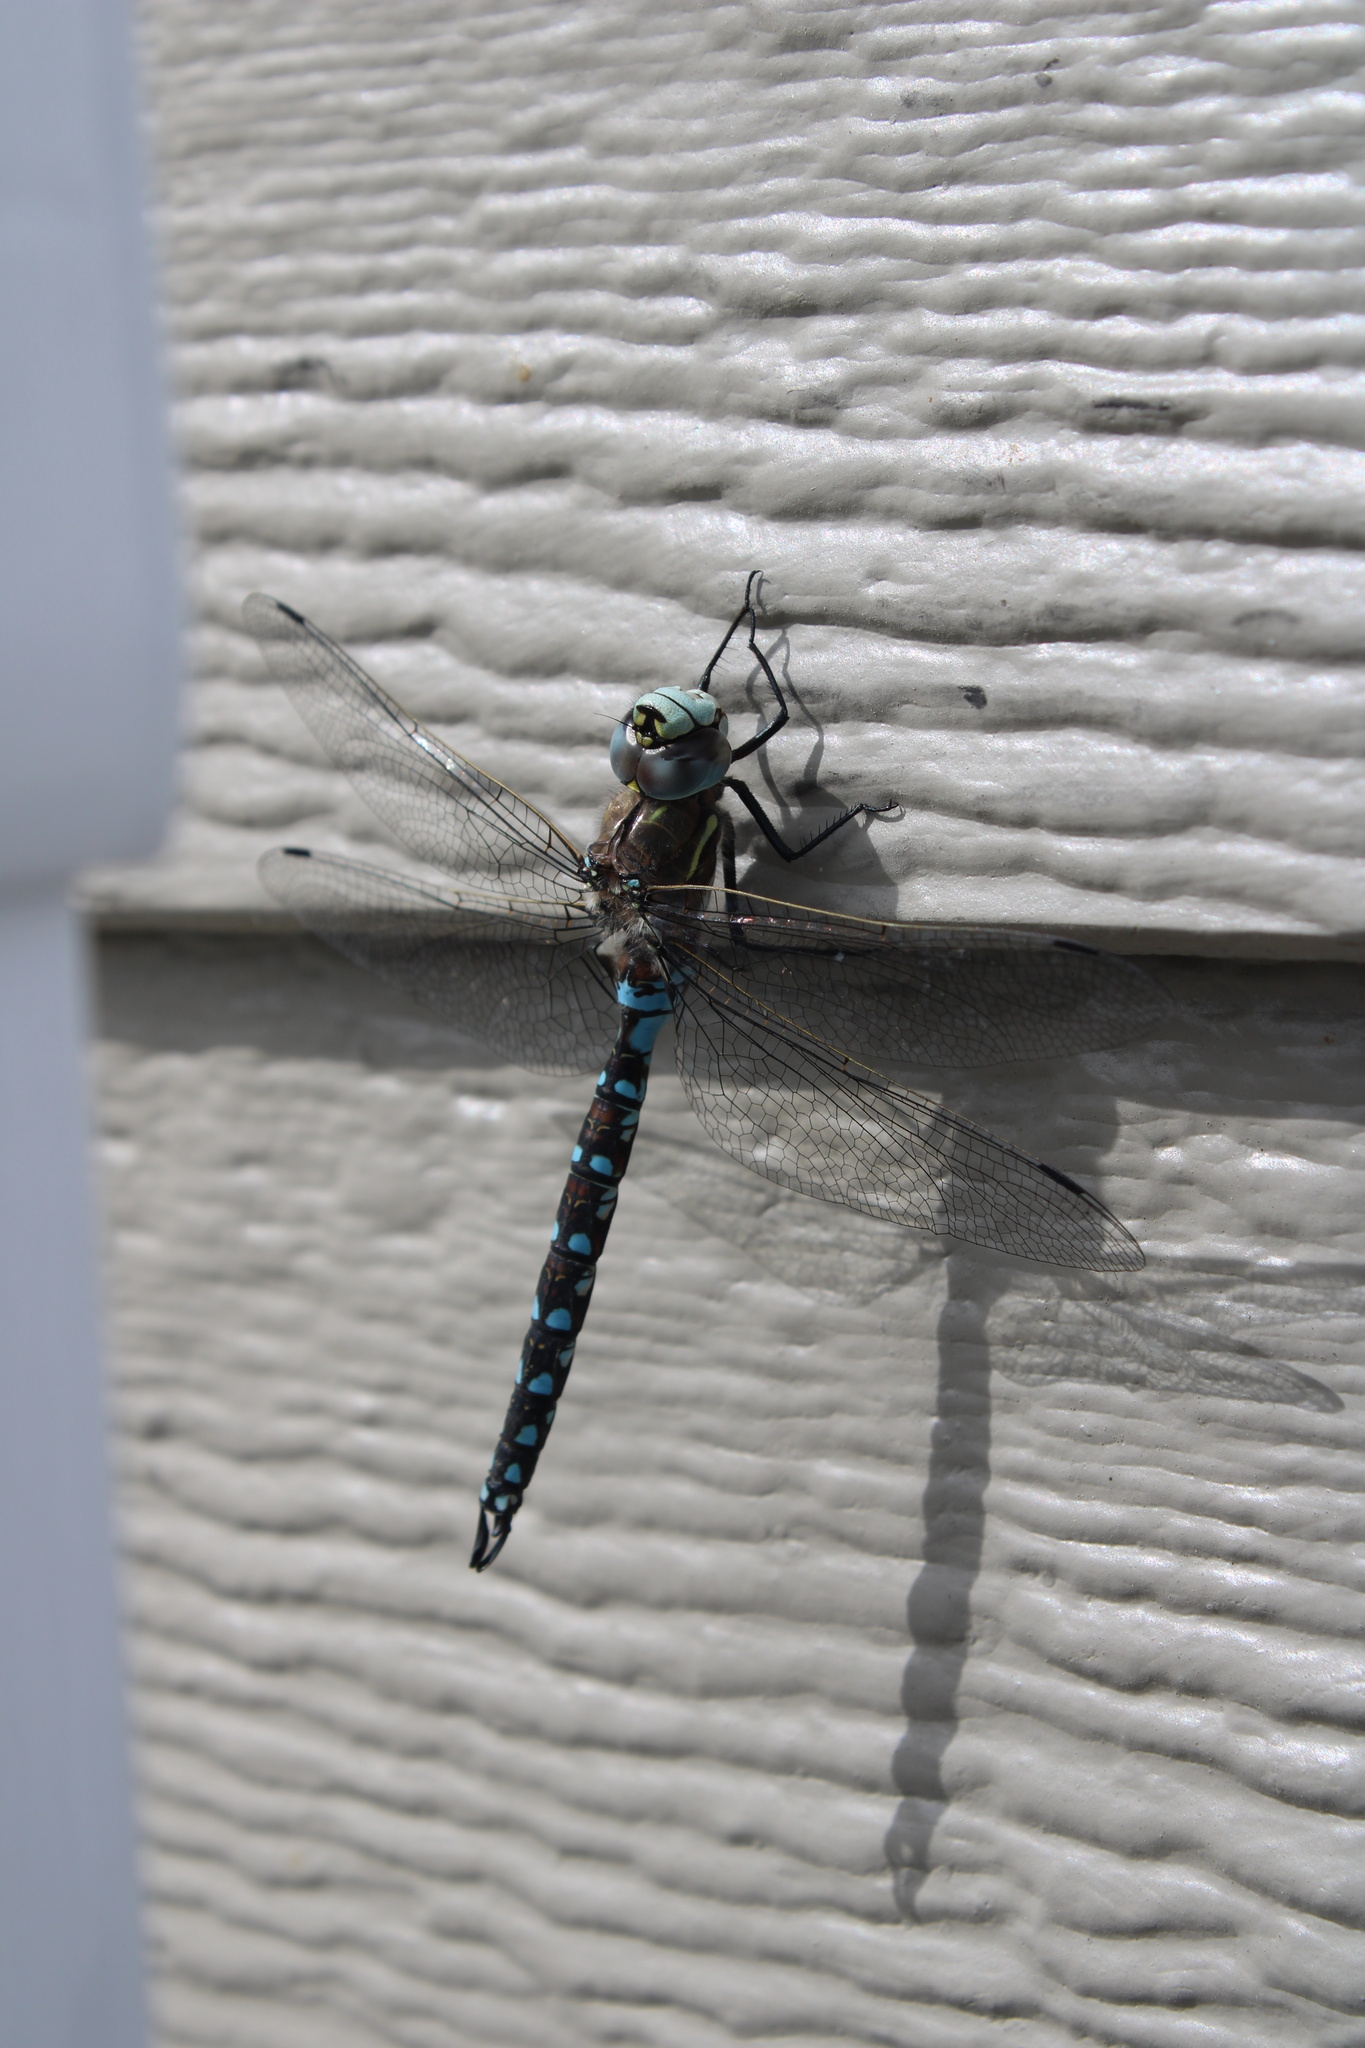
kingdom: Animalia
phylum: Arthropoda
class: Insecta
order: Odonata
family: Aeshnidae
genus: Rhionaeschna
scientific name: Rhionaeschna californica
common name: California darner
